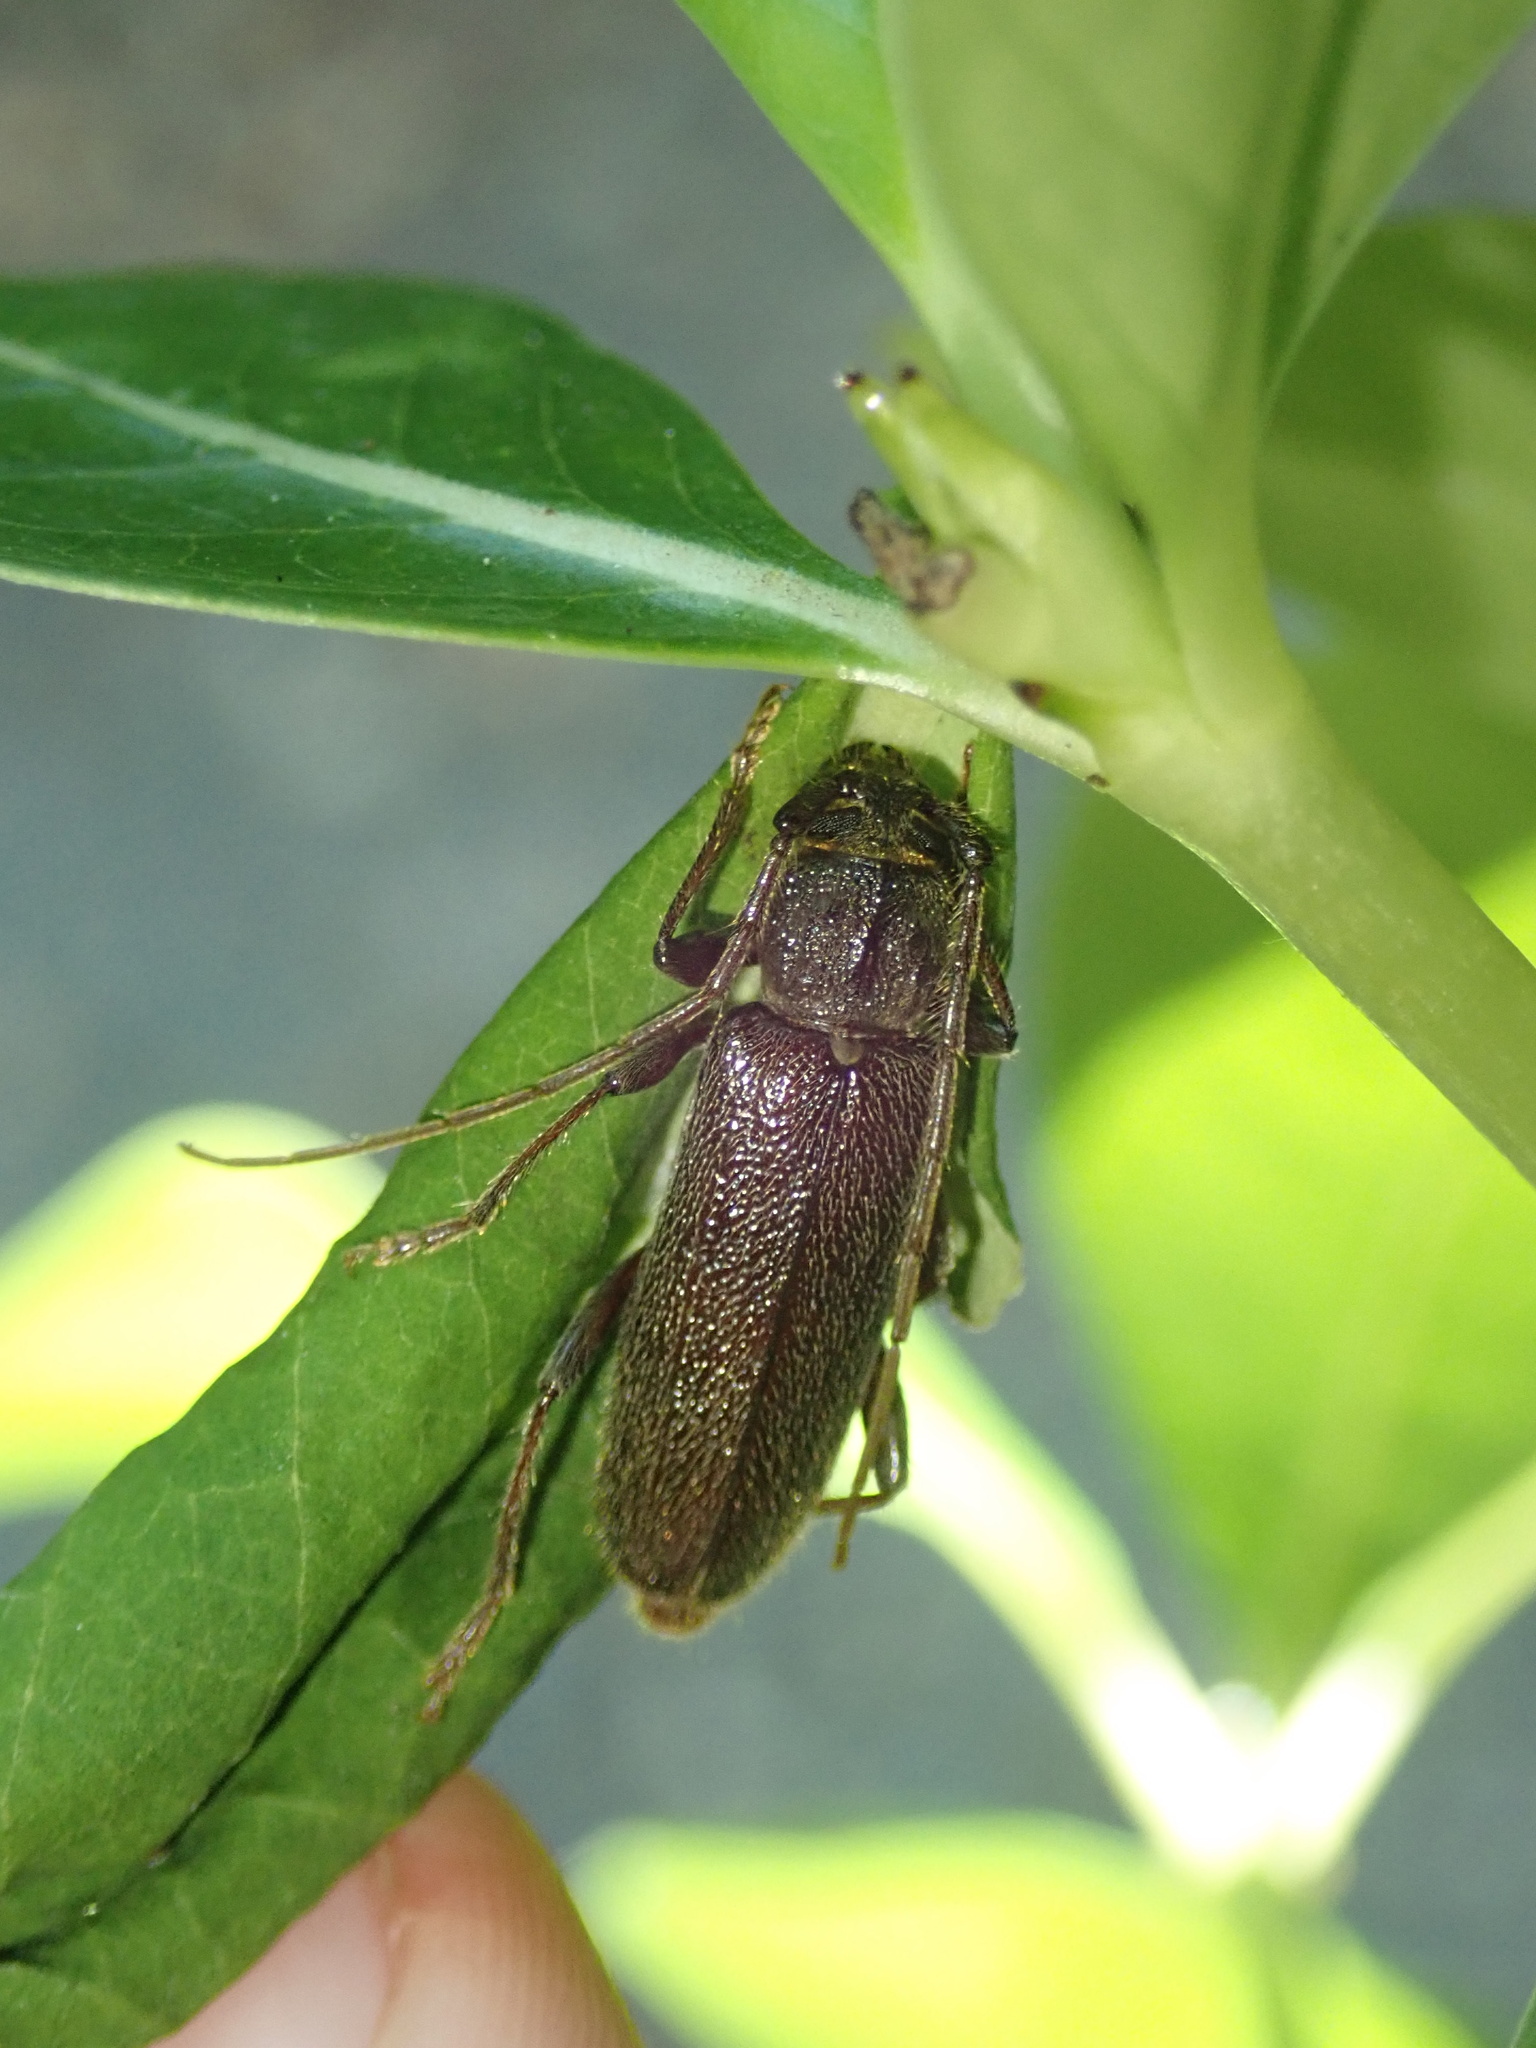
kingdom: Animalia
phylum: Arthropoda
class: Insecta
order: Coleoptera
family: Cerambycidae
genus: Liogramma
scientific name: Liogramma zelandica
